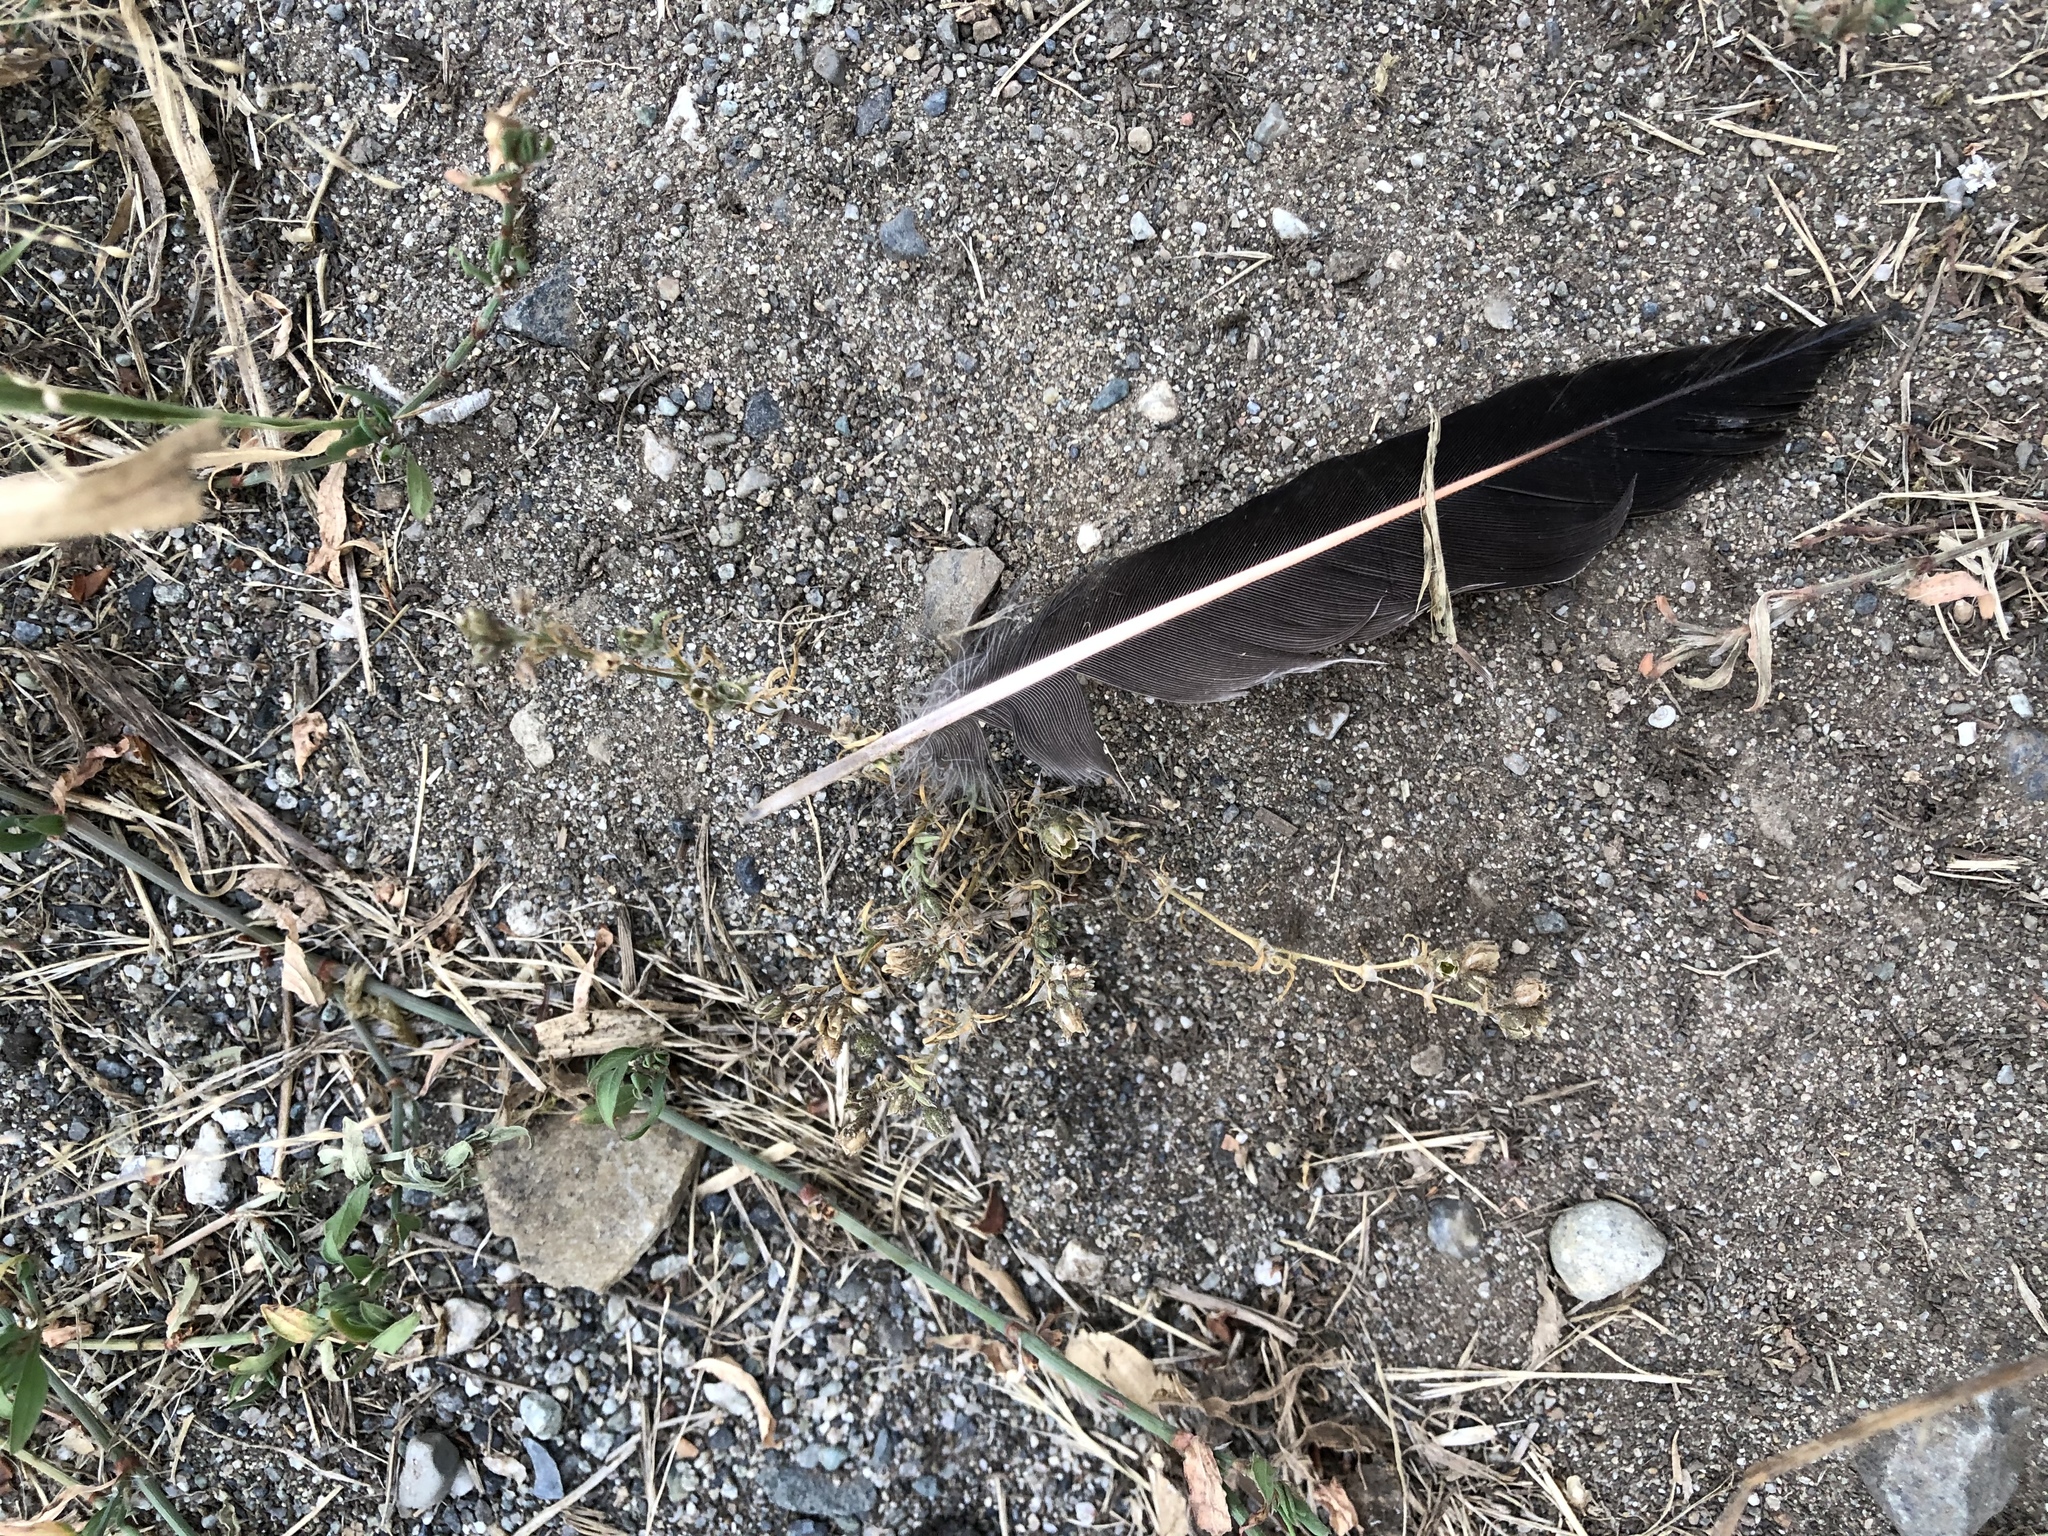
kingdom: Animalia
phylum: Chordata
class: Aves
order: Piciformes
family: Picidae
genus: Colaptes
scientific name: Colaptes auratus
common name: Northern flicker
